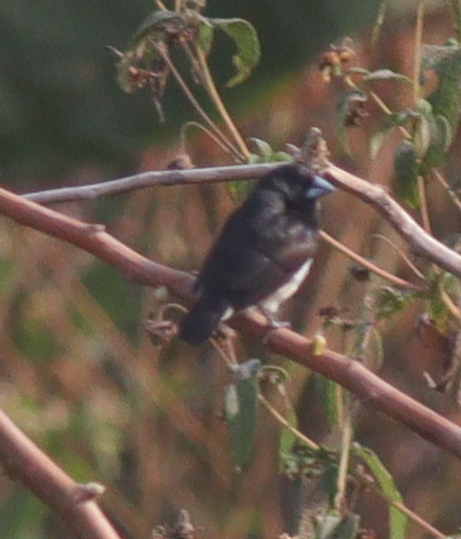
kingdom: Animalia
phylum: Chordata
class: Aves
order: Passeriformes
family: Estrildidae
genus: Lonchura
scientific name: Lonchura bicolor
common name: Black-and-white mannikin
